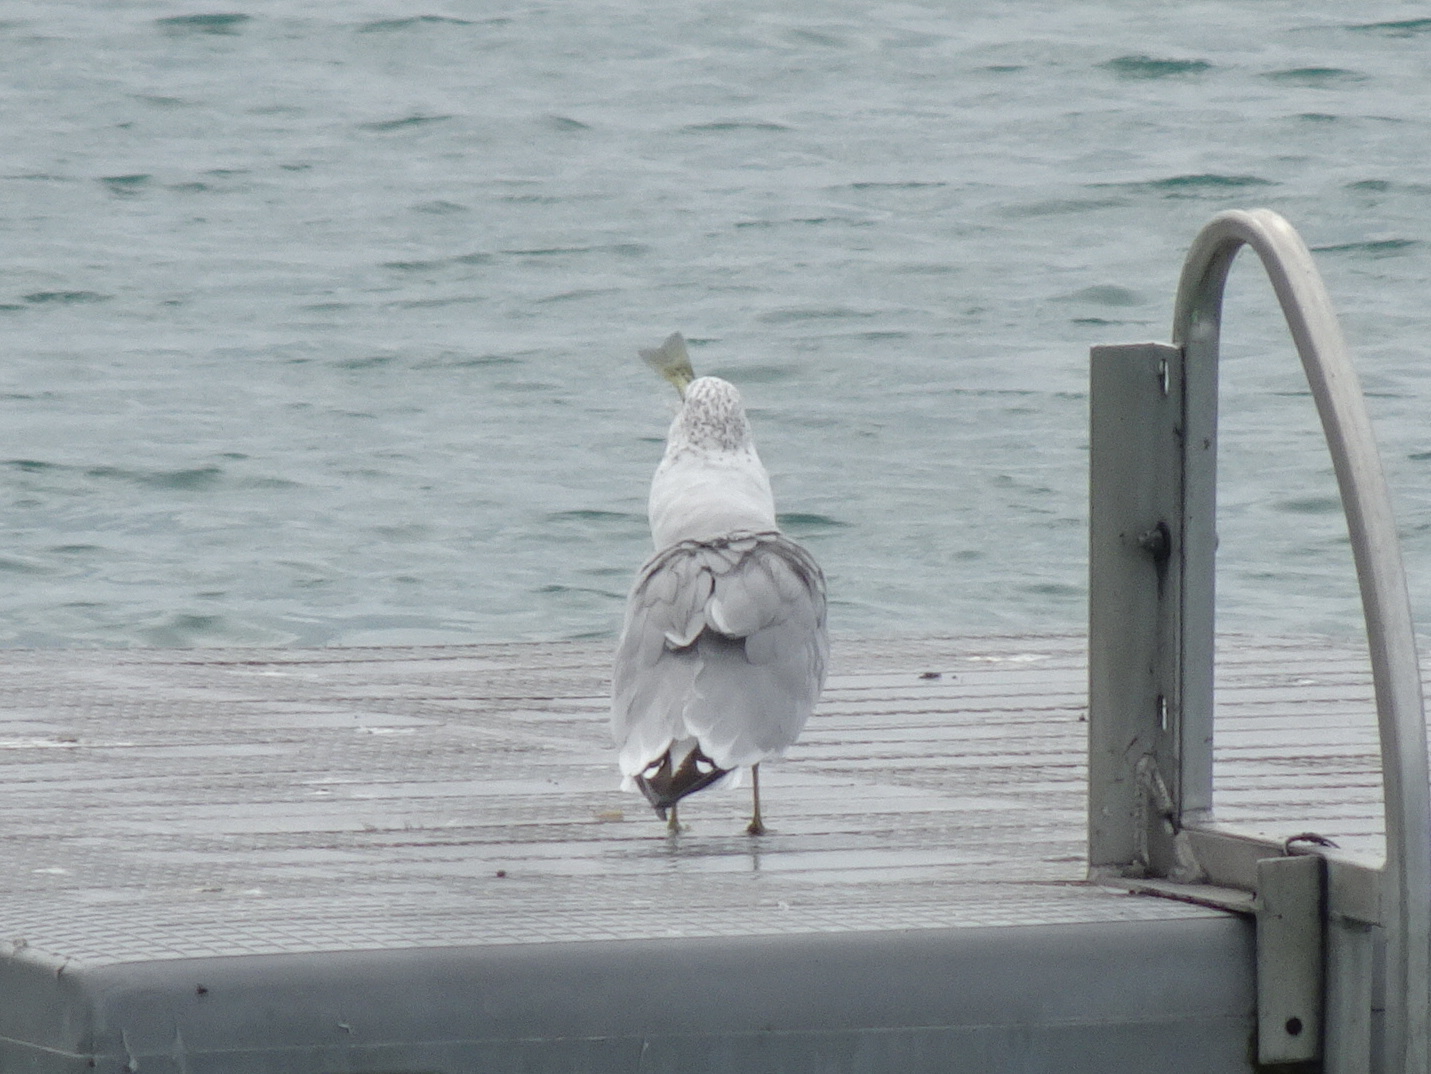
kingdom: Animalia
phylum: Chordata
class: Aves
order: Charadriiformes
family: Laridae
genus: Larus
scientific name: Larus delawarensis
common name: Ring-billed gull
